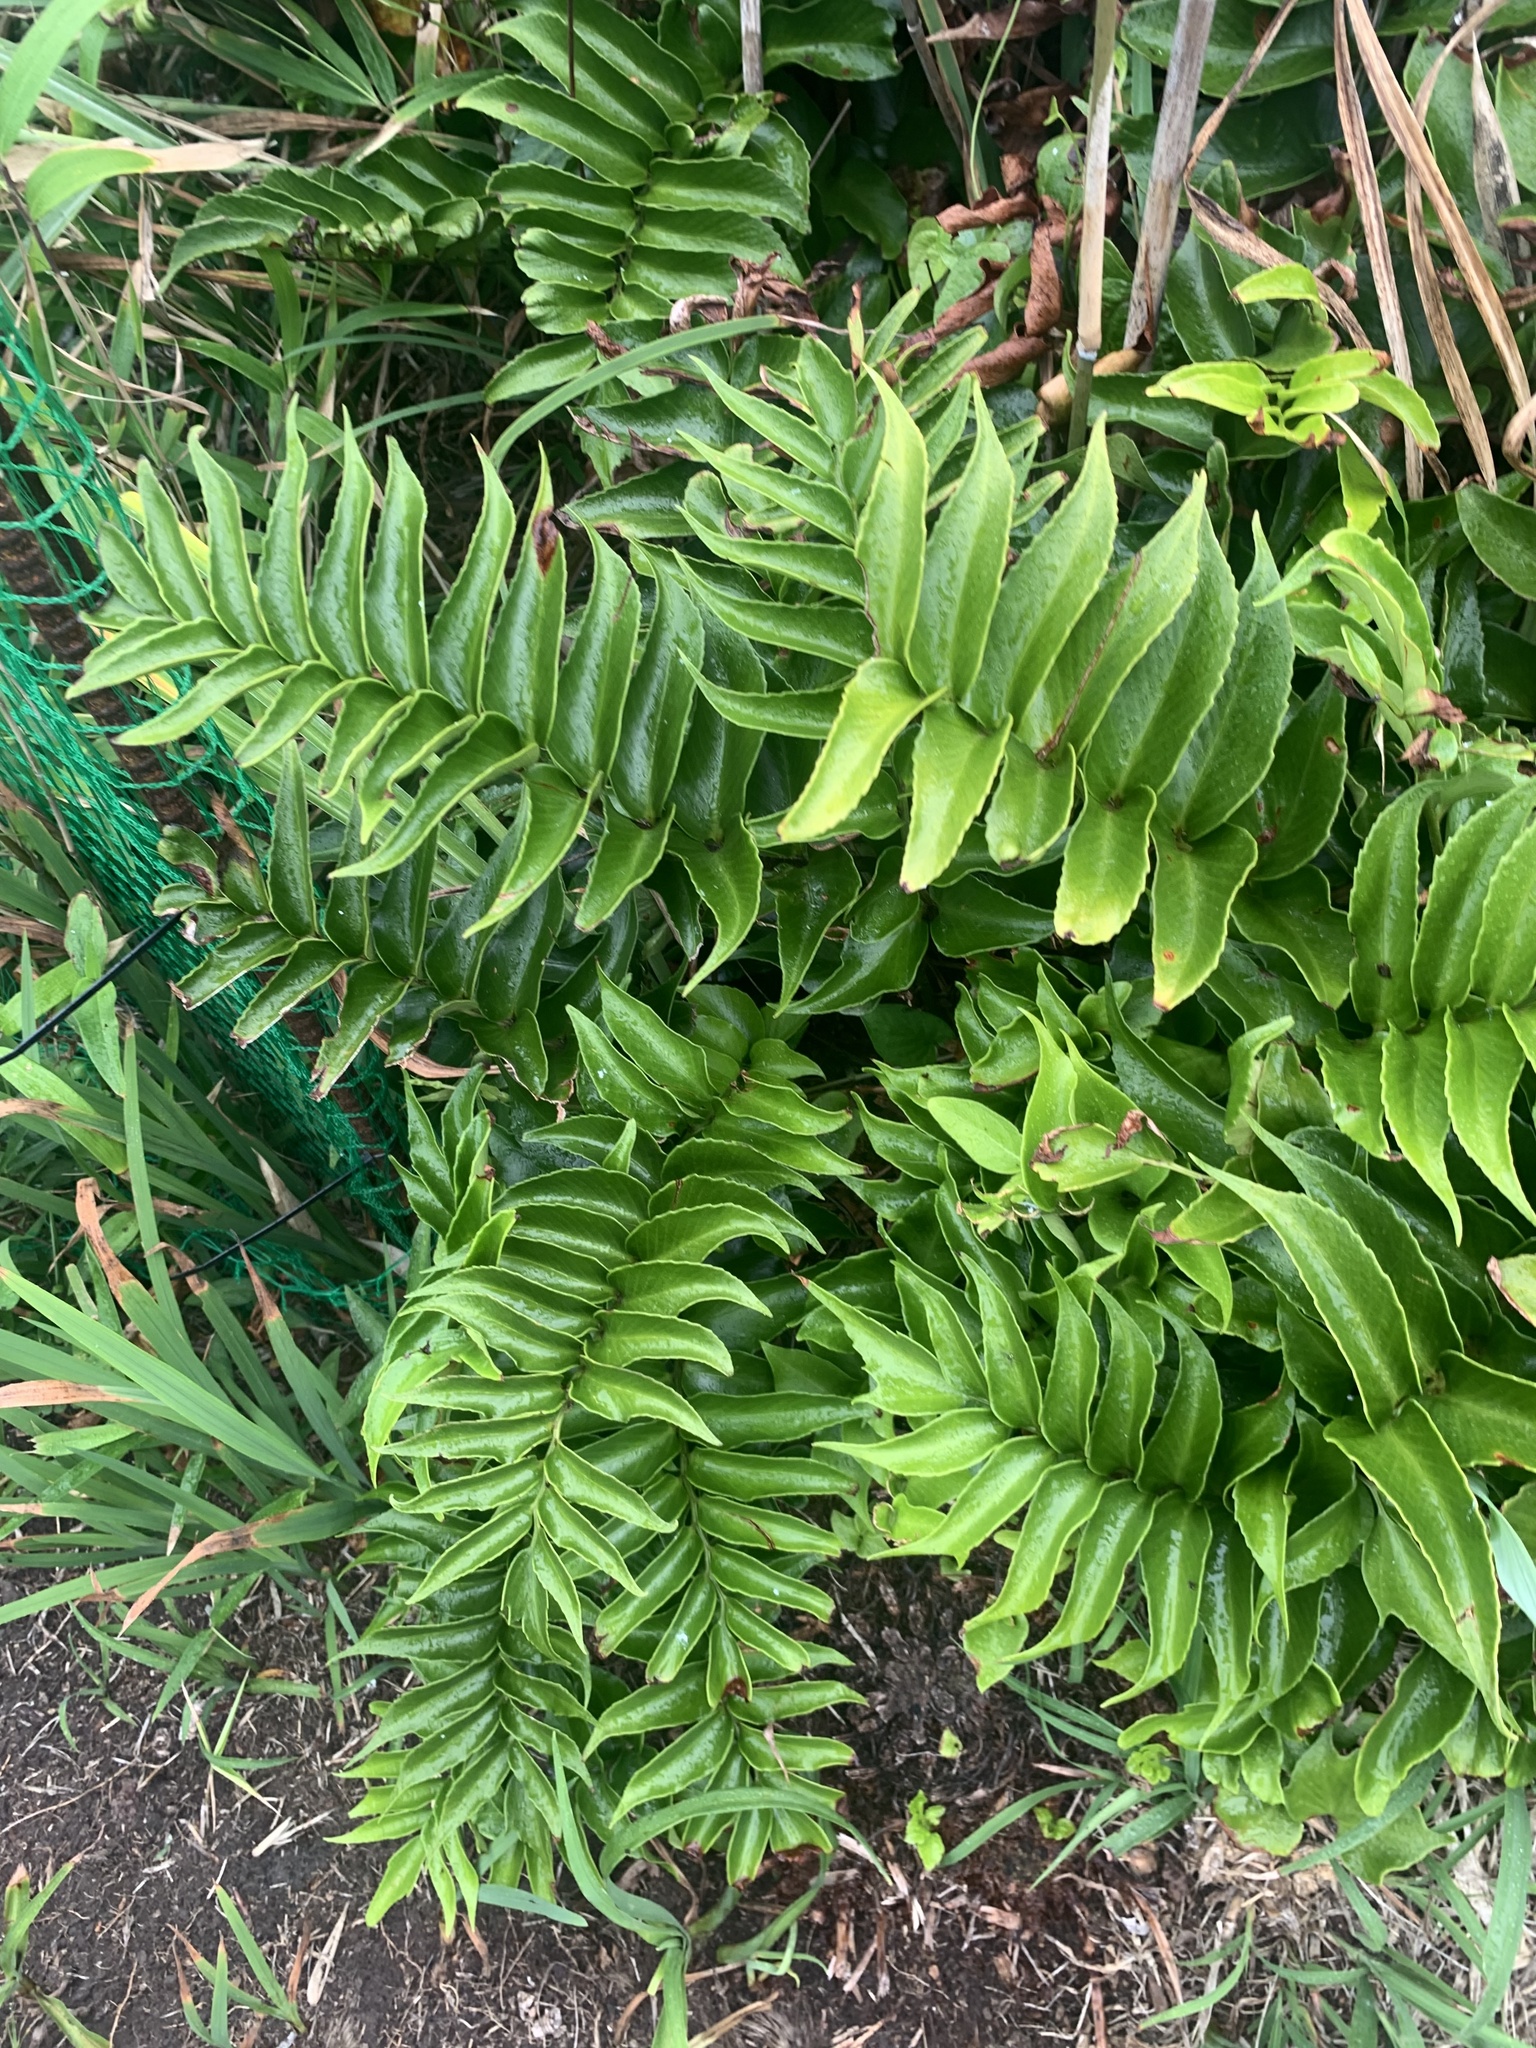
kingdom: Plantae
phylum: Tracheophyta
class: Polypodiopsida
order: Polypodiales
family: Dryopteridaceae
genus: Cyrtomium
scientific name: Cyrtomium falcatum
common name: House holly-fern
